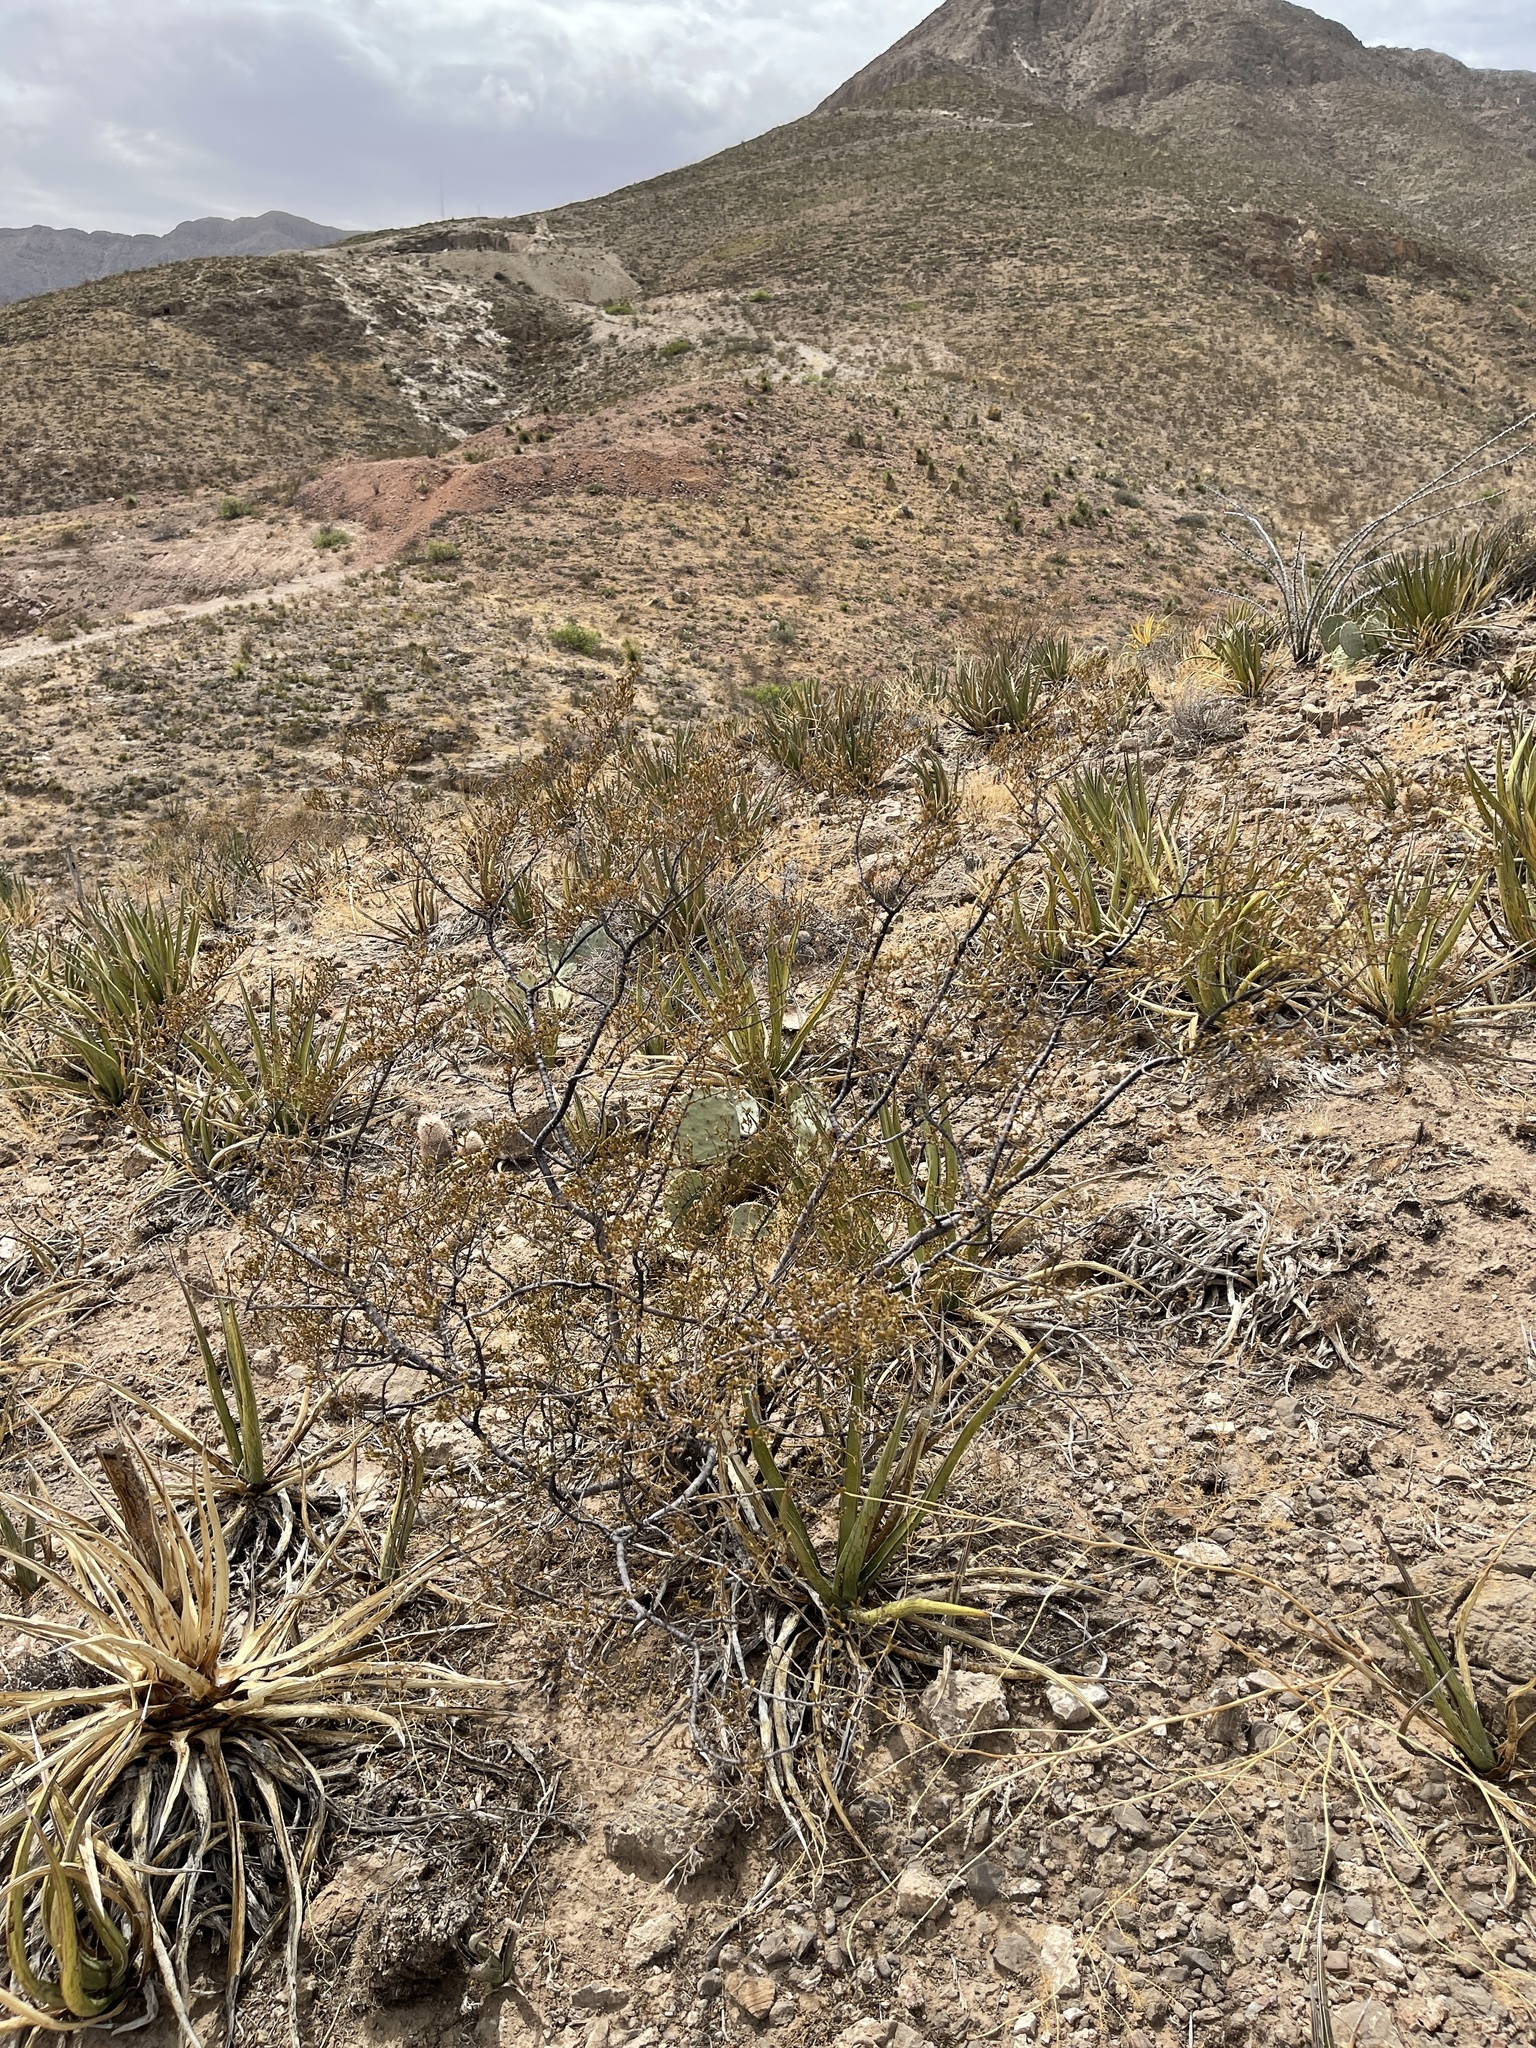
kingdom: Plantae
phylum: Tracheophyta
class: Magnoliopsida
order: Zygophyllales
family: Zygophyllaceae
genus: Larrea
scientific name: Larrea tridentata
